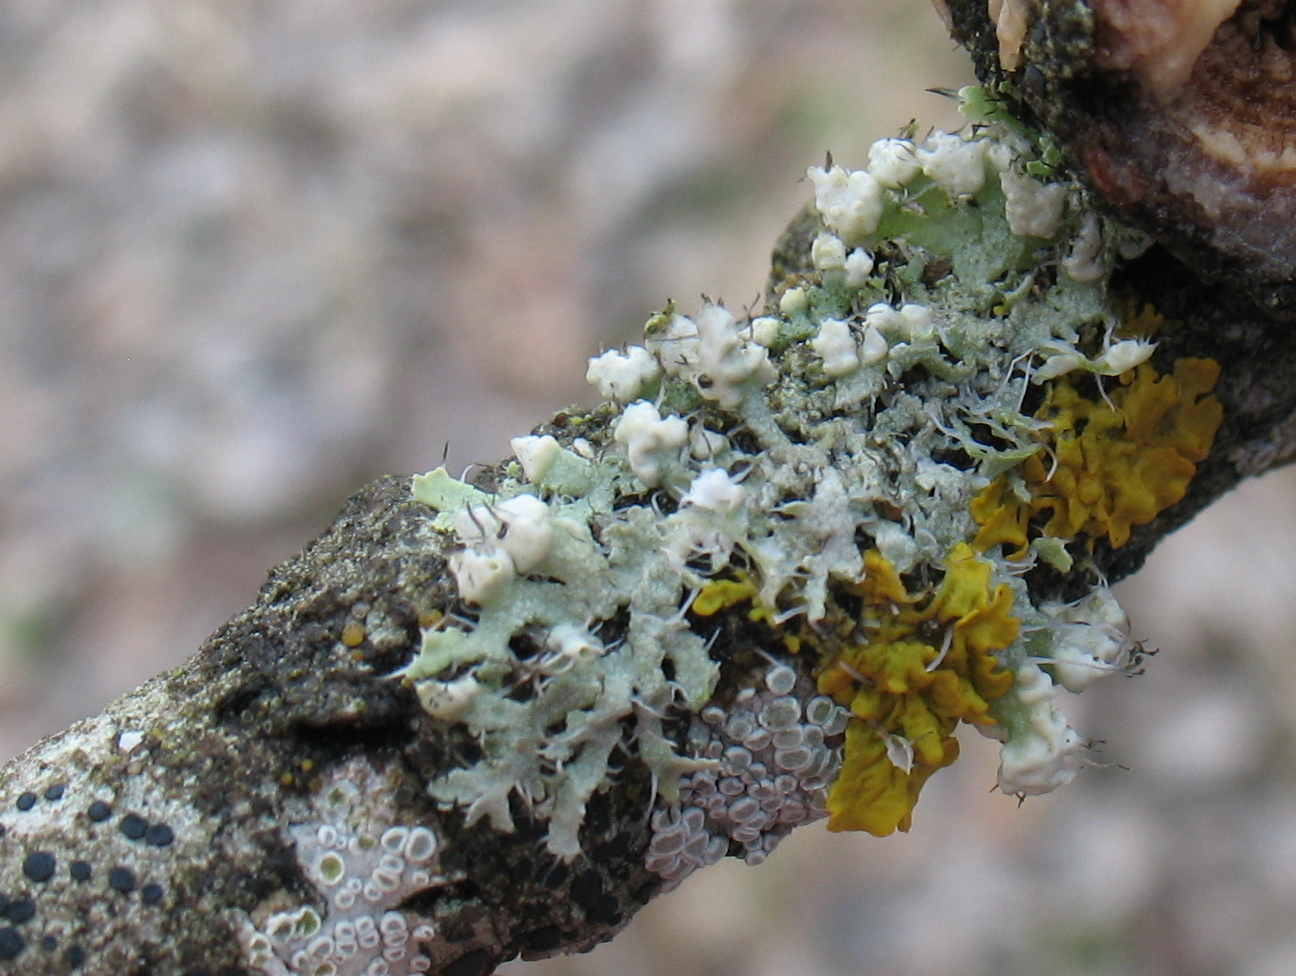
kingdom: Fungi
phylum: Ascomycota
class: Lecanoromycetes
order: Caliciales
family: Physciaceae
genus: Physcia
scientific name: Physcia adscendens
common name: Hooded rosette lichen
